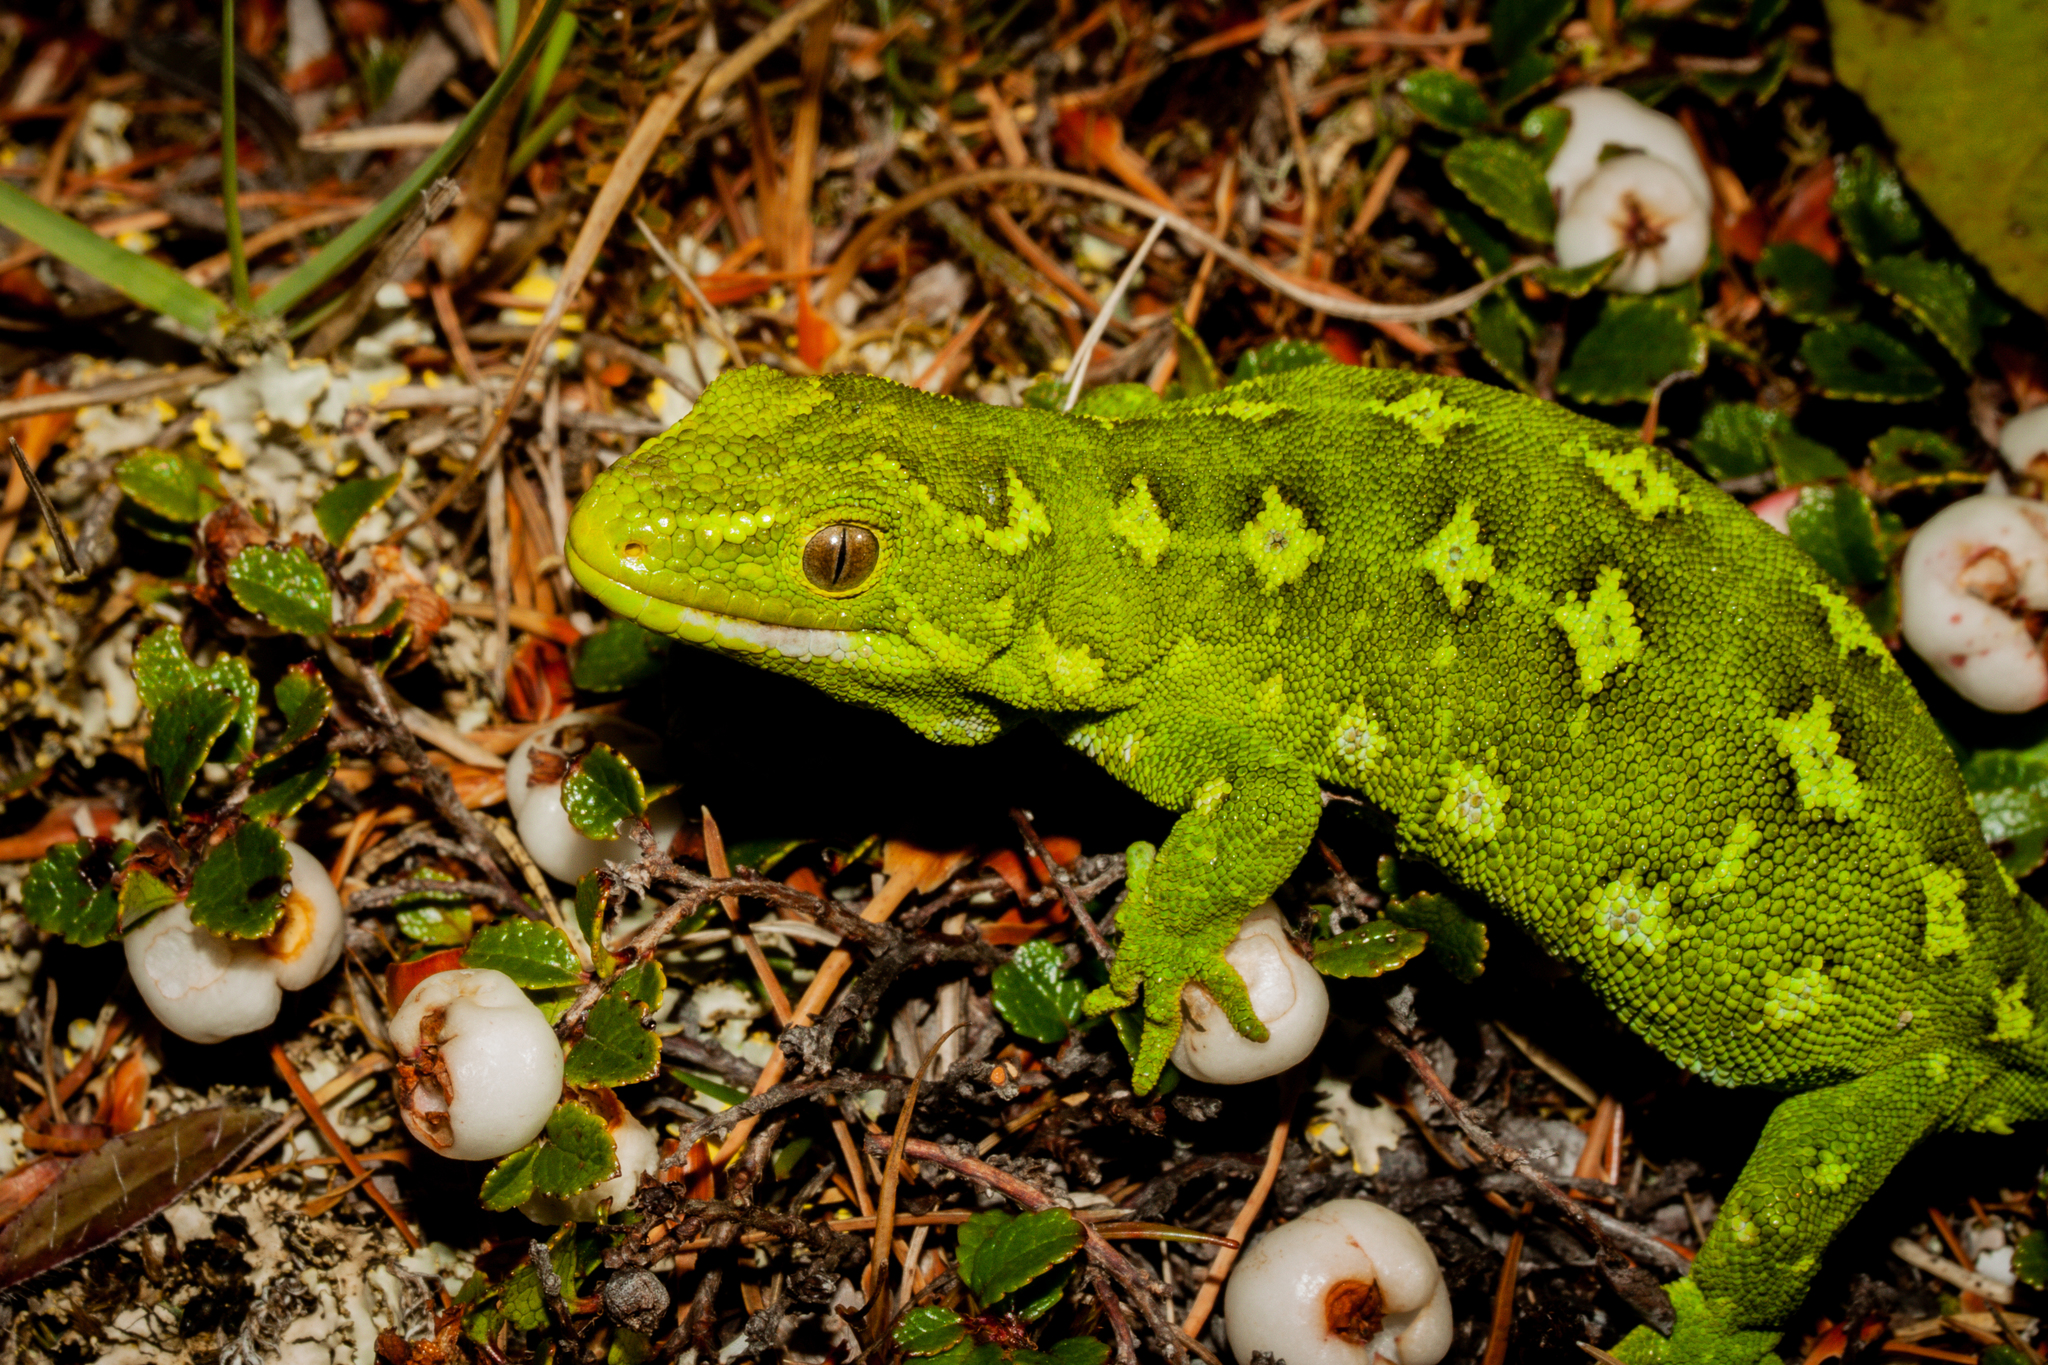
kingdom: Animalia
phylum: Chordata
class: Squamata
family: Diplodactylidae
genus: Naultinus
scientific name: Naultinus gemmeus
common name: Jewelled gecko
